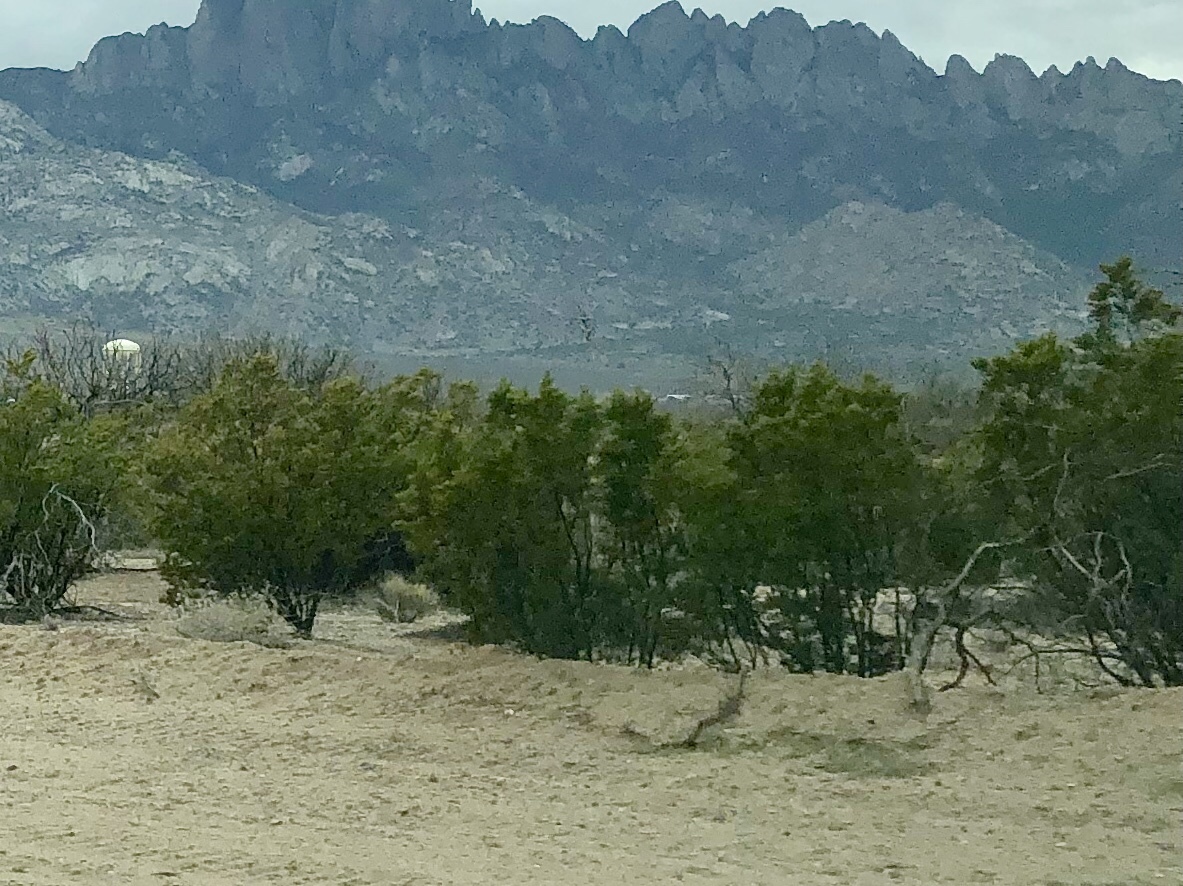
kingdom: Plantae
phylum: Tracheophyta
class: Magnoliopsida
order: Zygophyllales
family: Zygophyllaceae
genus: Larrea
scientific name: Larrea tridentata
